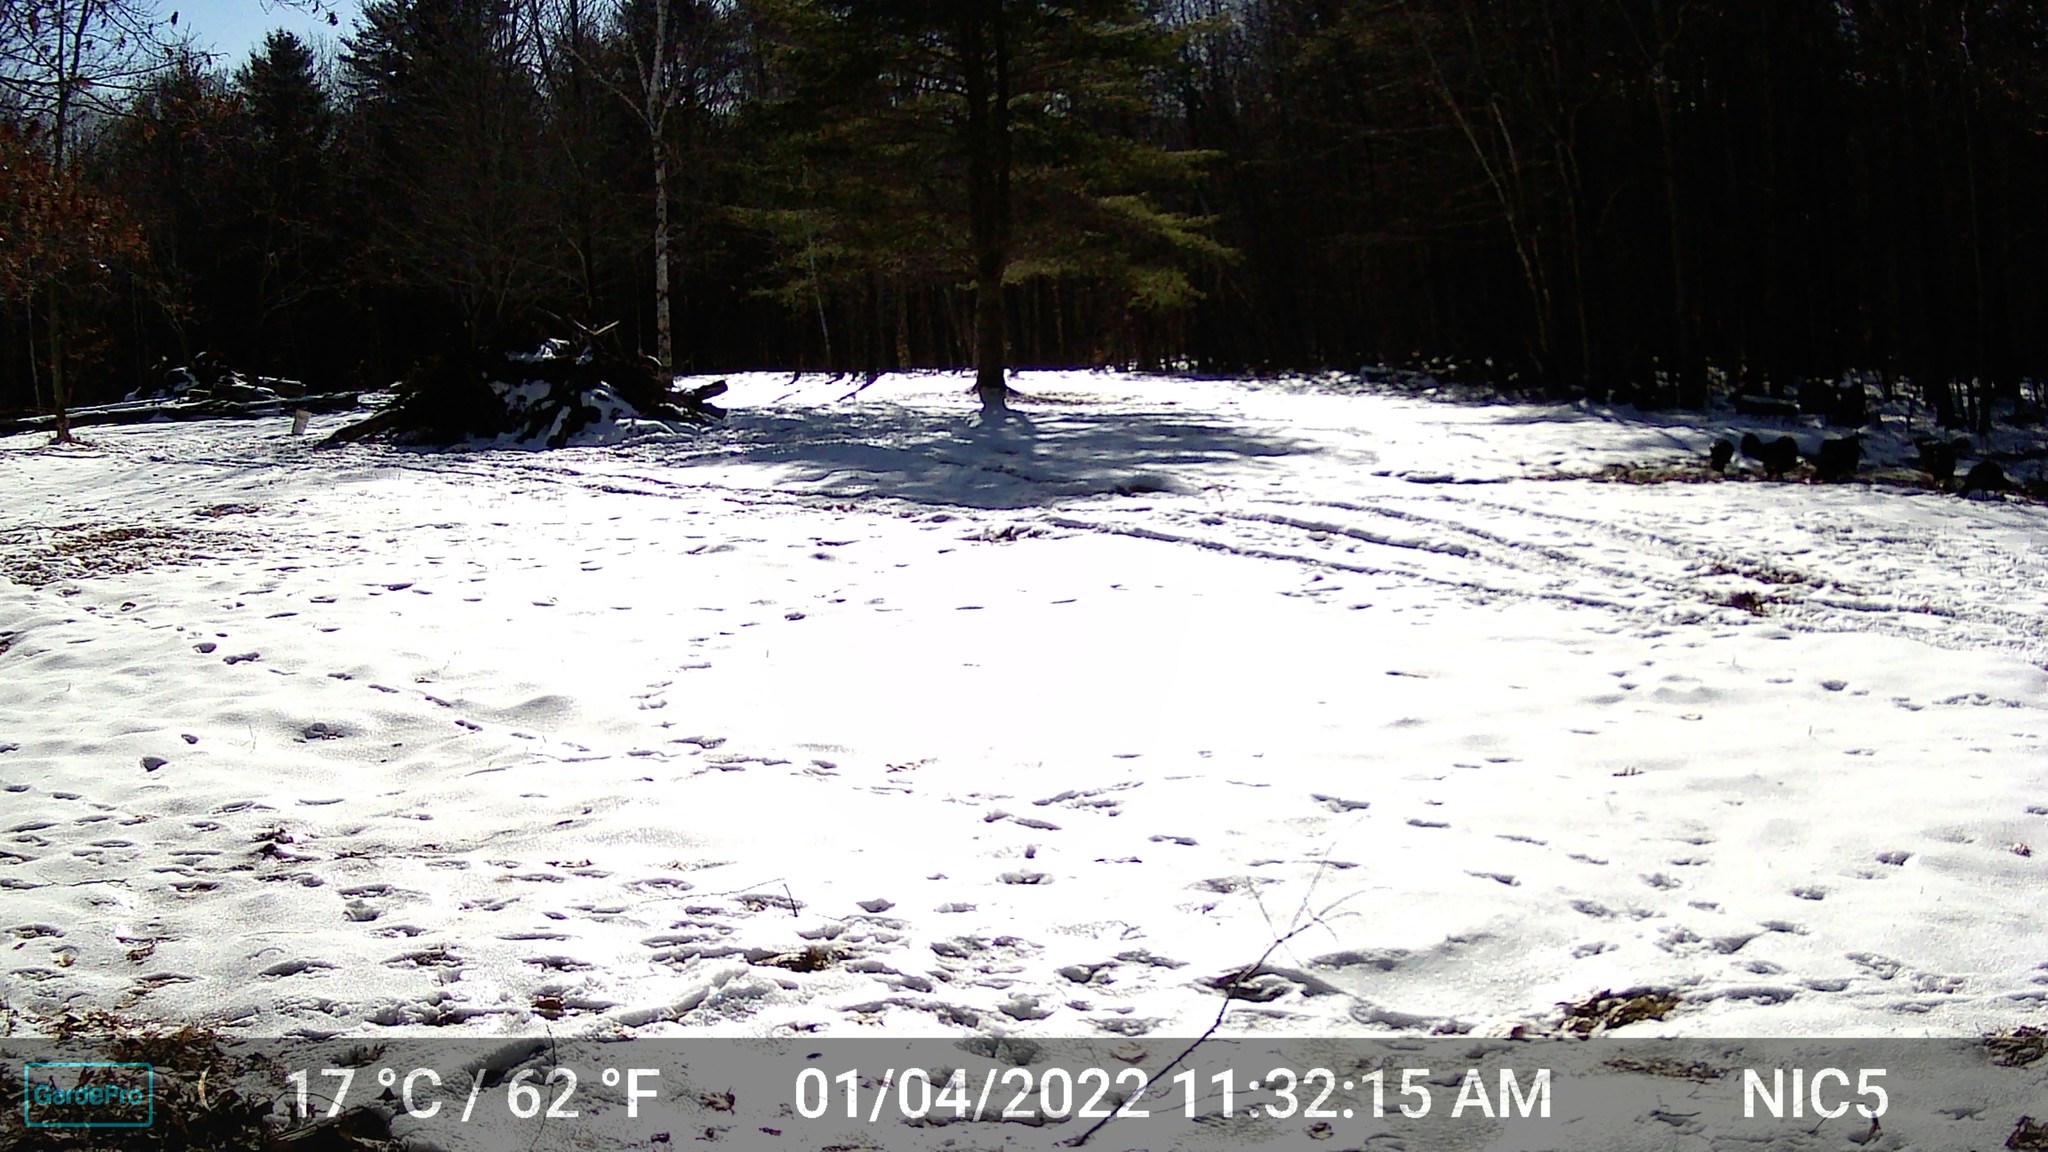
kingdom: Animalia
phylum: Chordata
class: Aves
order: Galliformes
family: Phasianidae
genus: Meleagris
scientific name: Meleagris gallopavo
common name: Wild turkey
